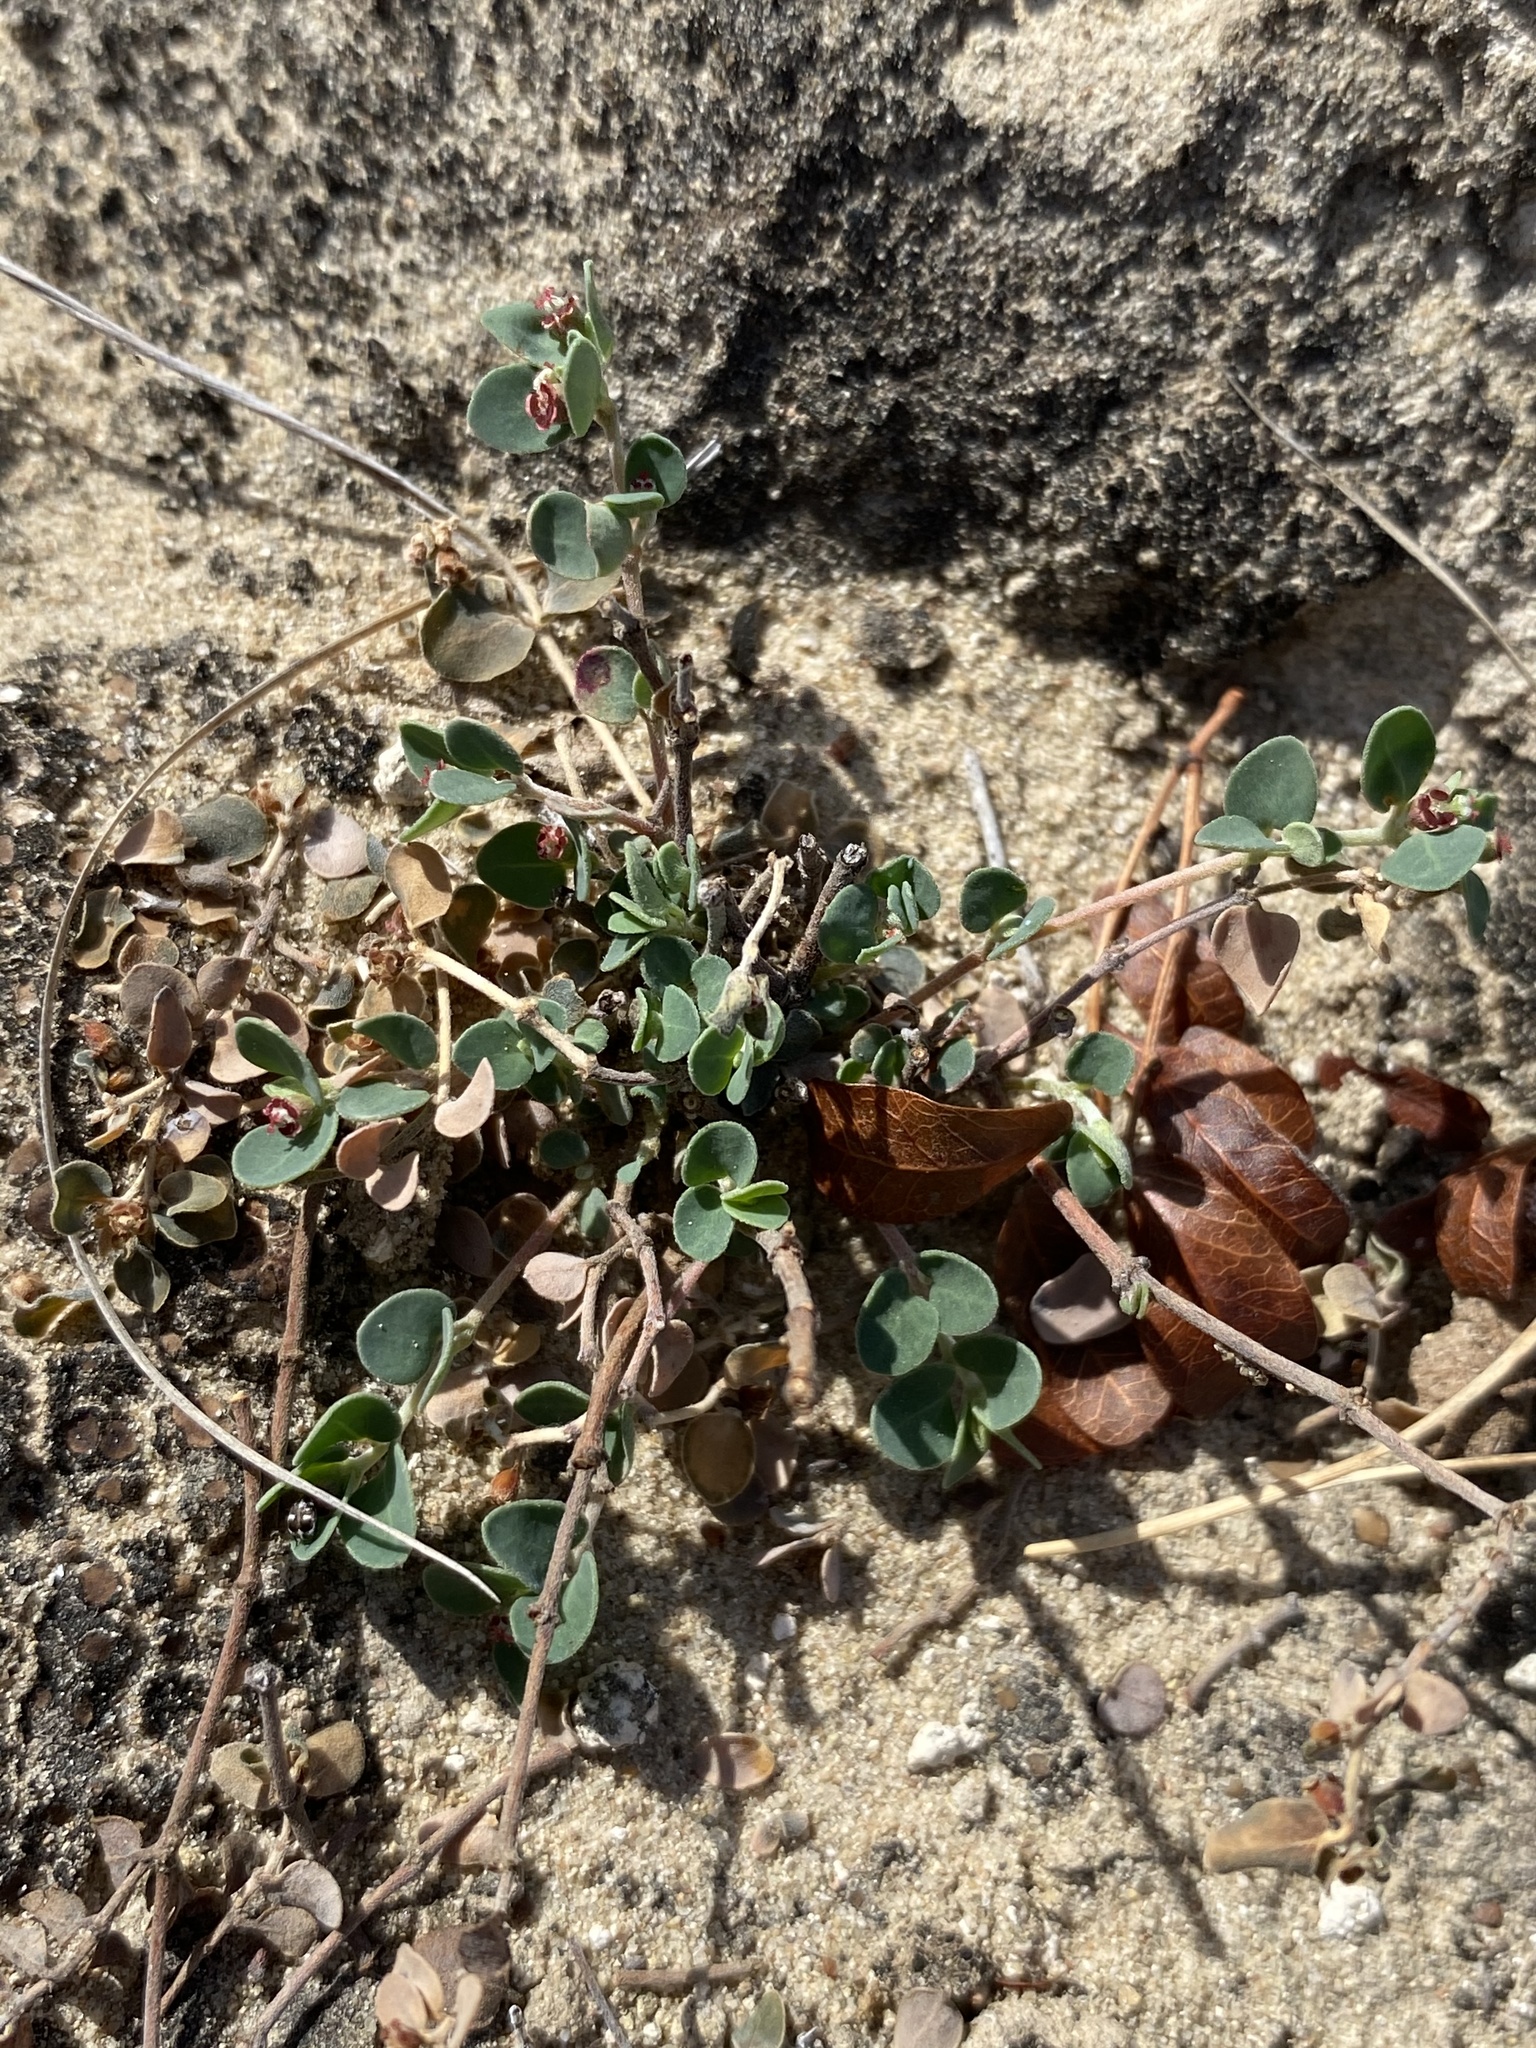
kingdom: Plantae
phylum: Tracheophyta
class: Magnoliopsida
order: Malpighiales
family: Euphorbiaceae
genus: Euphorbia
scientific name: Euphorbia cinerascens
